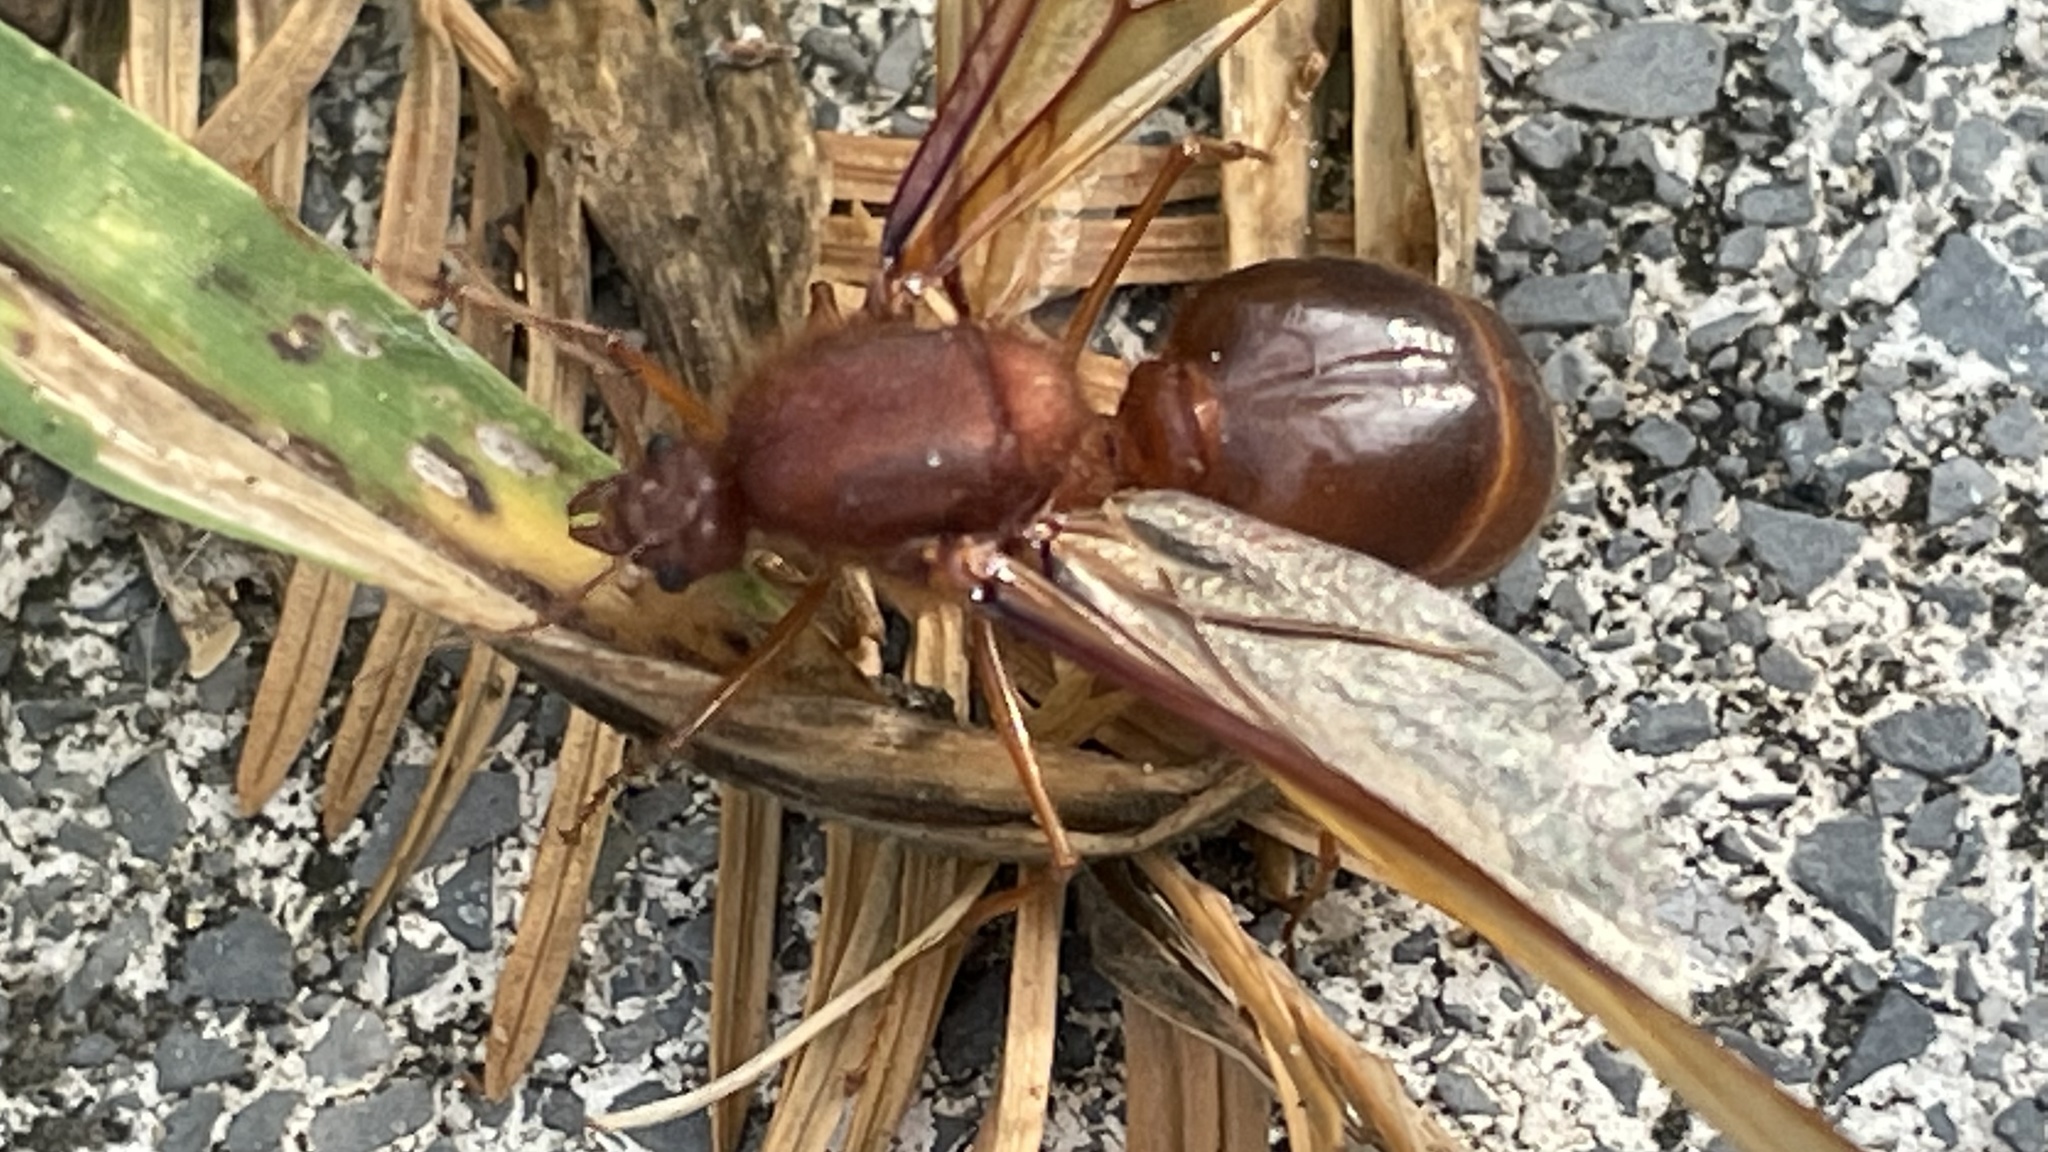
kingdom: Animalia
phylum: Arthropoda
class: Insecta
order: Hymenoptera
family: Formicidae
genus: Atta
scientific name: Atta mexicana
